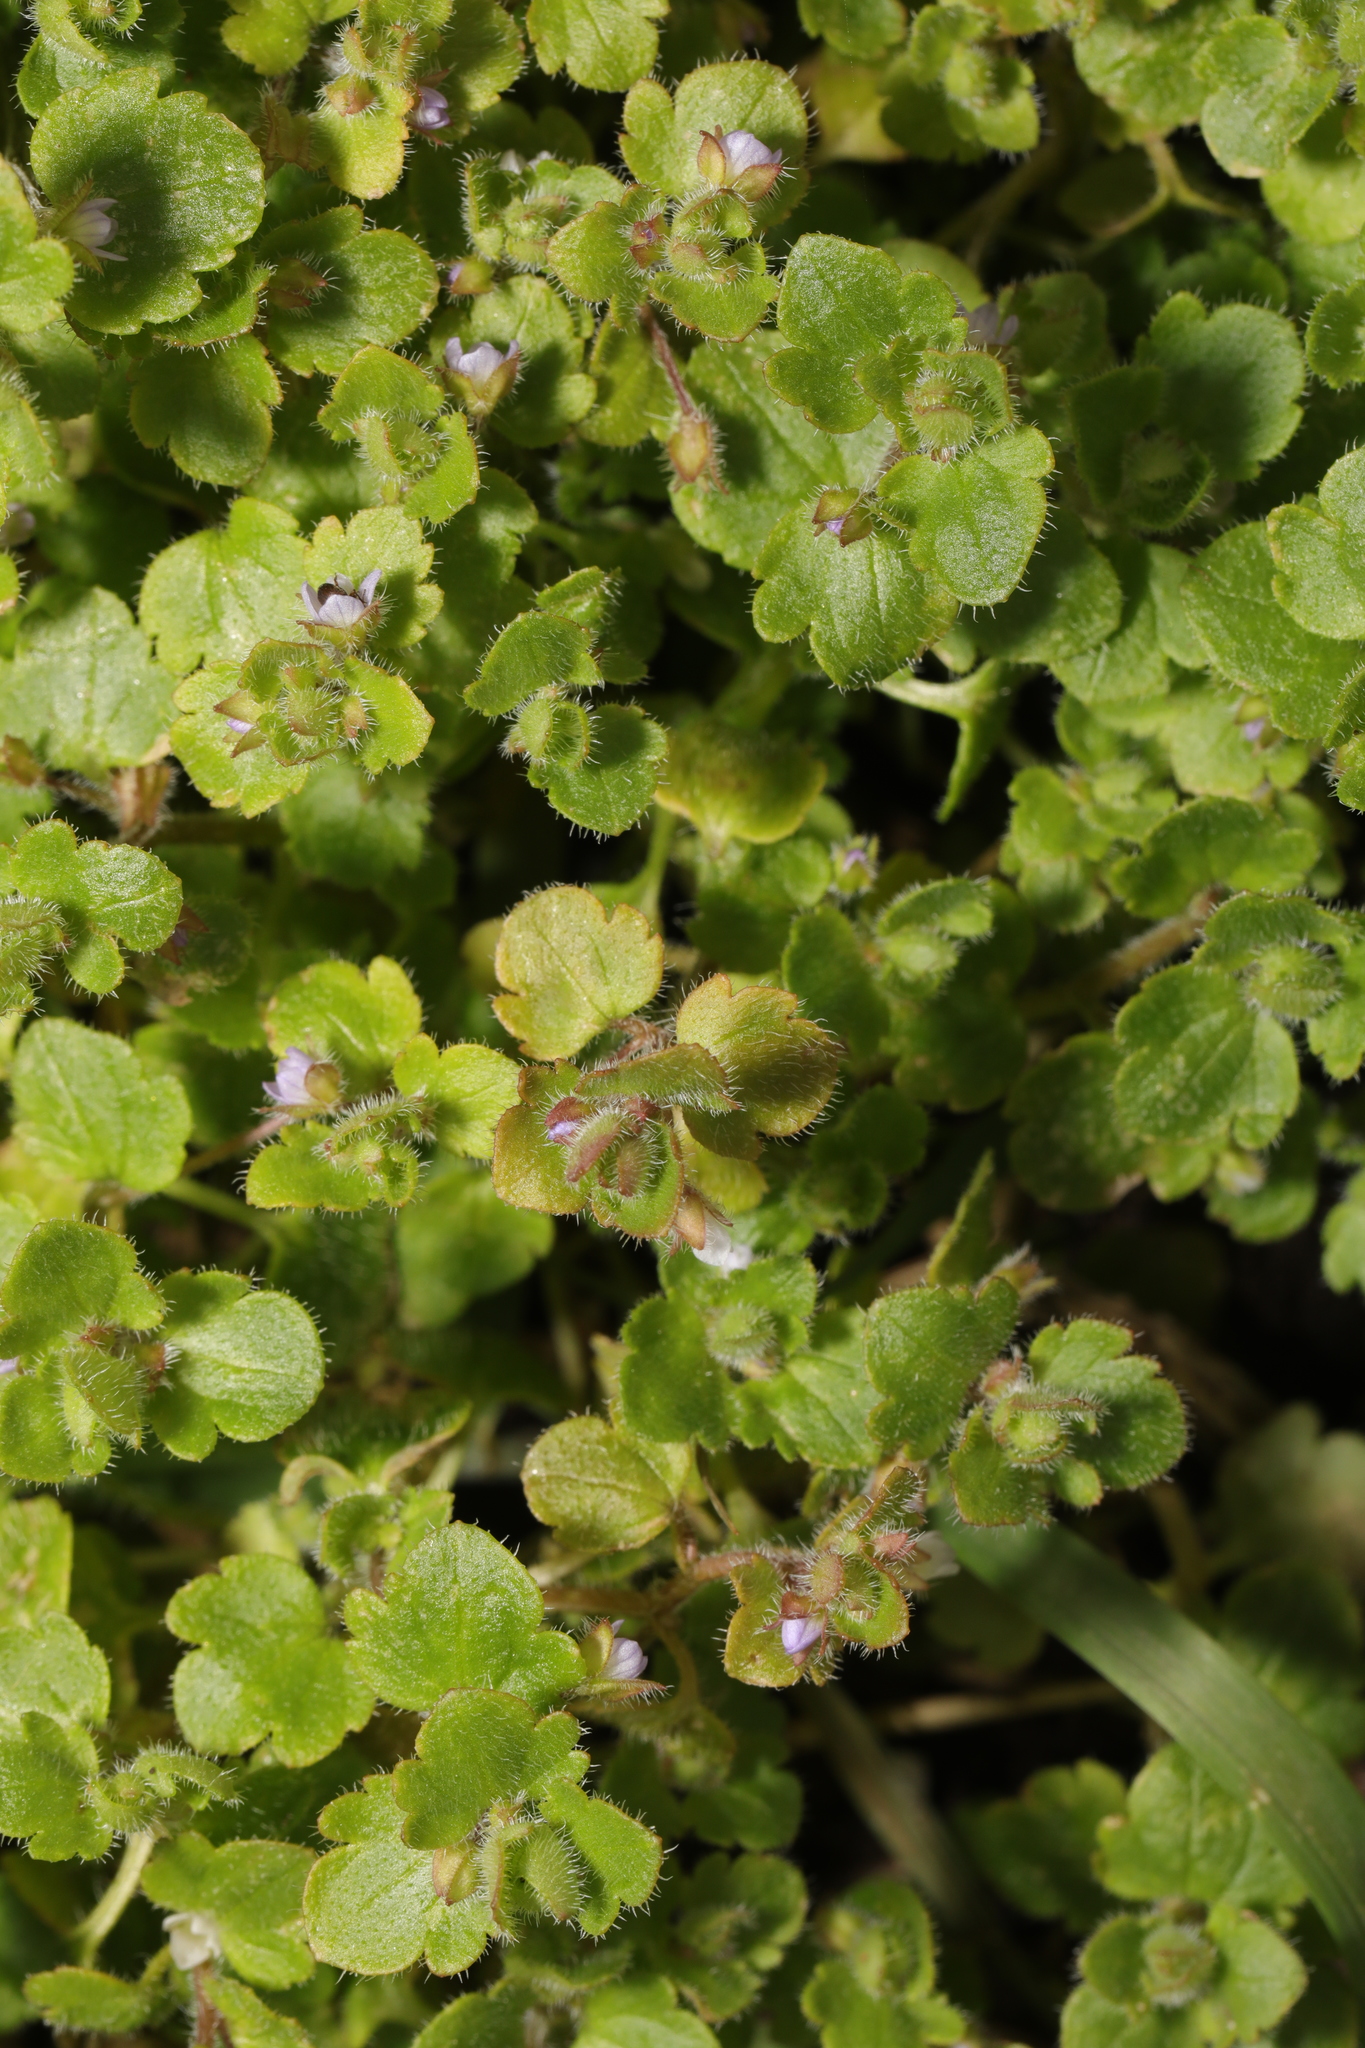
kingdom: Plantae
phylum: Tracheophyta
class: Magnoliopsida
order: Lamiales
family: Plantaginaceae
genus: Veronica
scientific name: Veronica hederifolia
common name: Ivy-leaved speedwell
